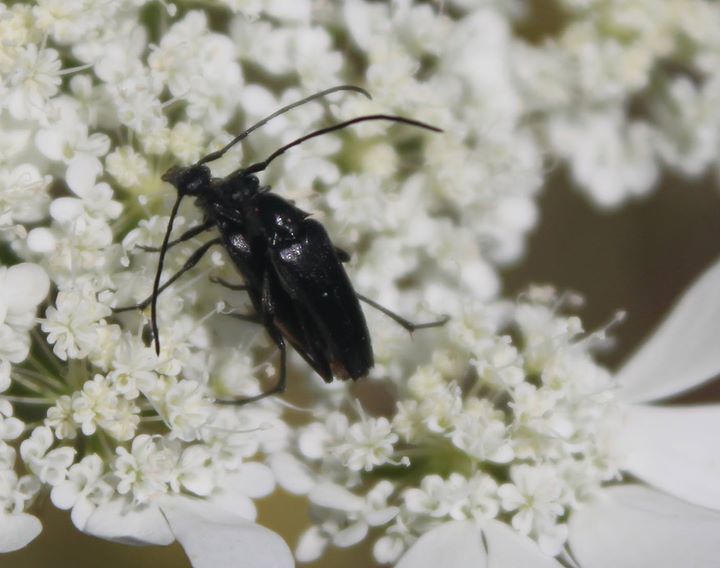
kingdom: Animalia
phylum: Arthropoda
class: Insecta
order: Coleoptera
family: Cerambycidae
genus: Stenurella
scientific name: Stenurella nigra
